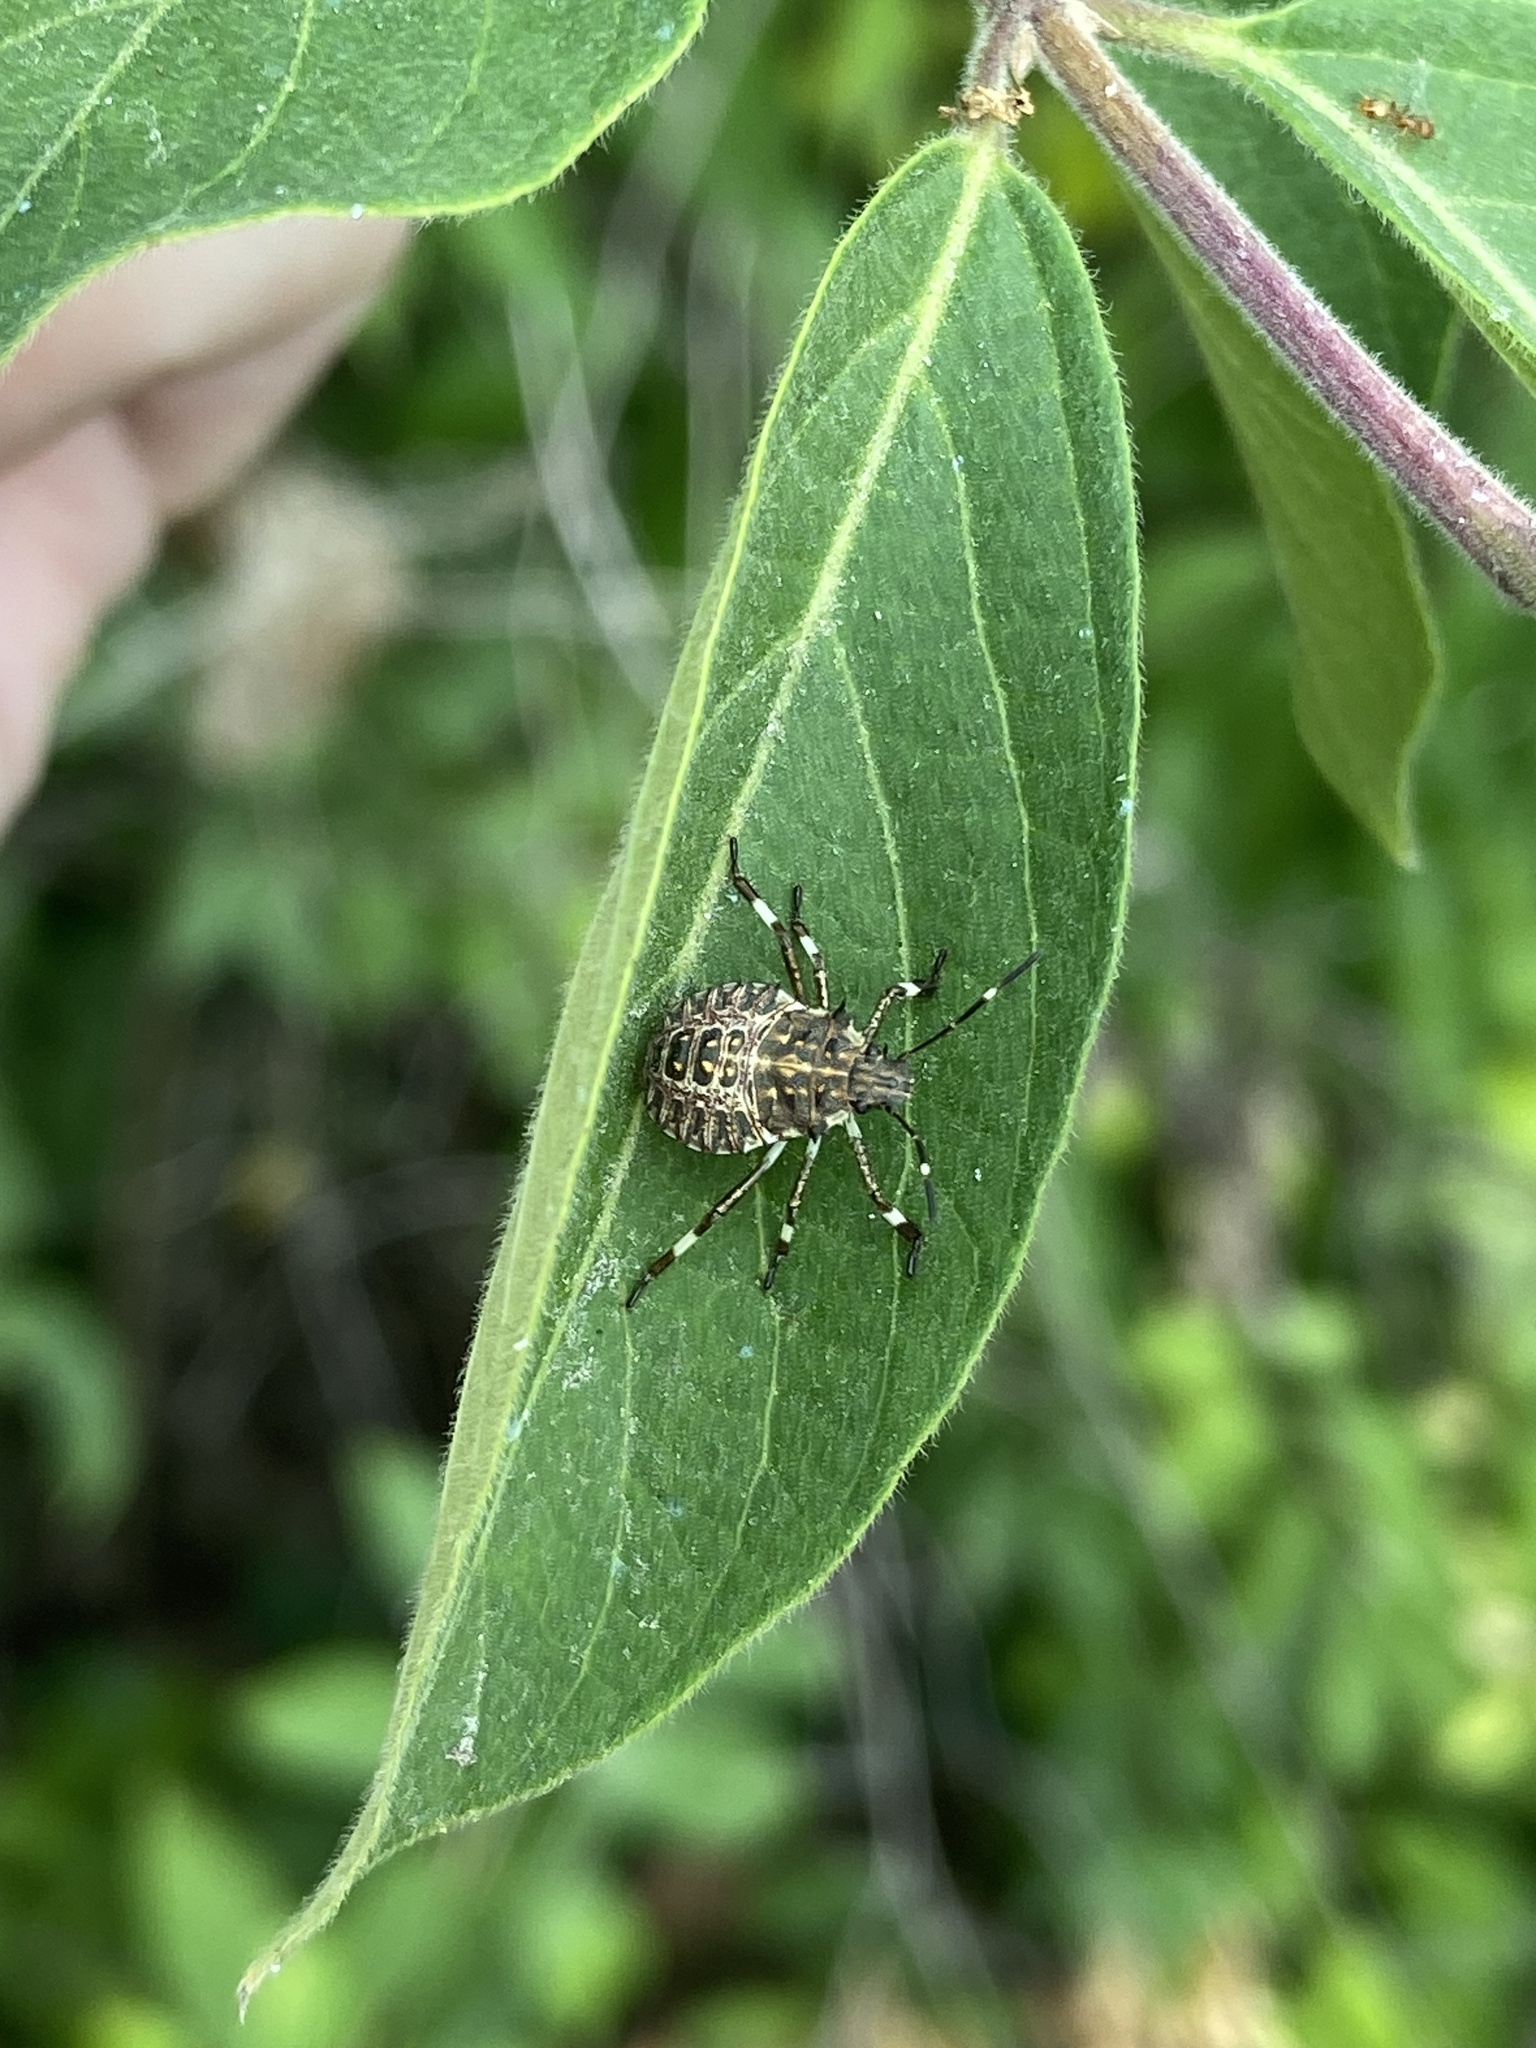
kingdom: Animalia
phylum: Arthropoda
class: Insecta
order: Hemiptera
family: Pentatomidae
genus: Halyomorpha
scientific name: Halyomorpha halys
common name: Brown marmorated stink bug
